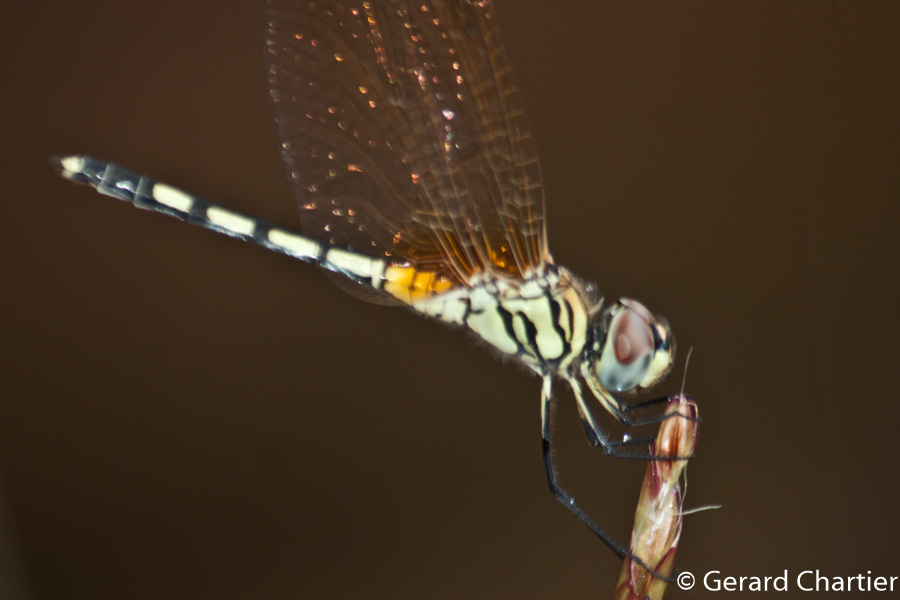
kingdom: Animalia
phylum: Arthropoda
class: Insecta
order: Odonata
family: Libellulidae
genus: Trithemis
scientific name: Trithemis pallidinervis
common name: Dancing dropwing
